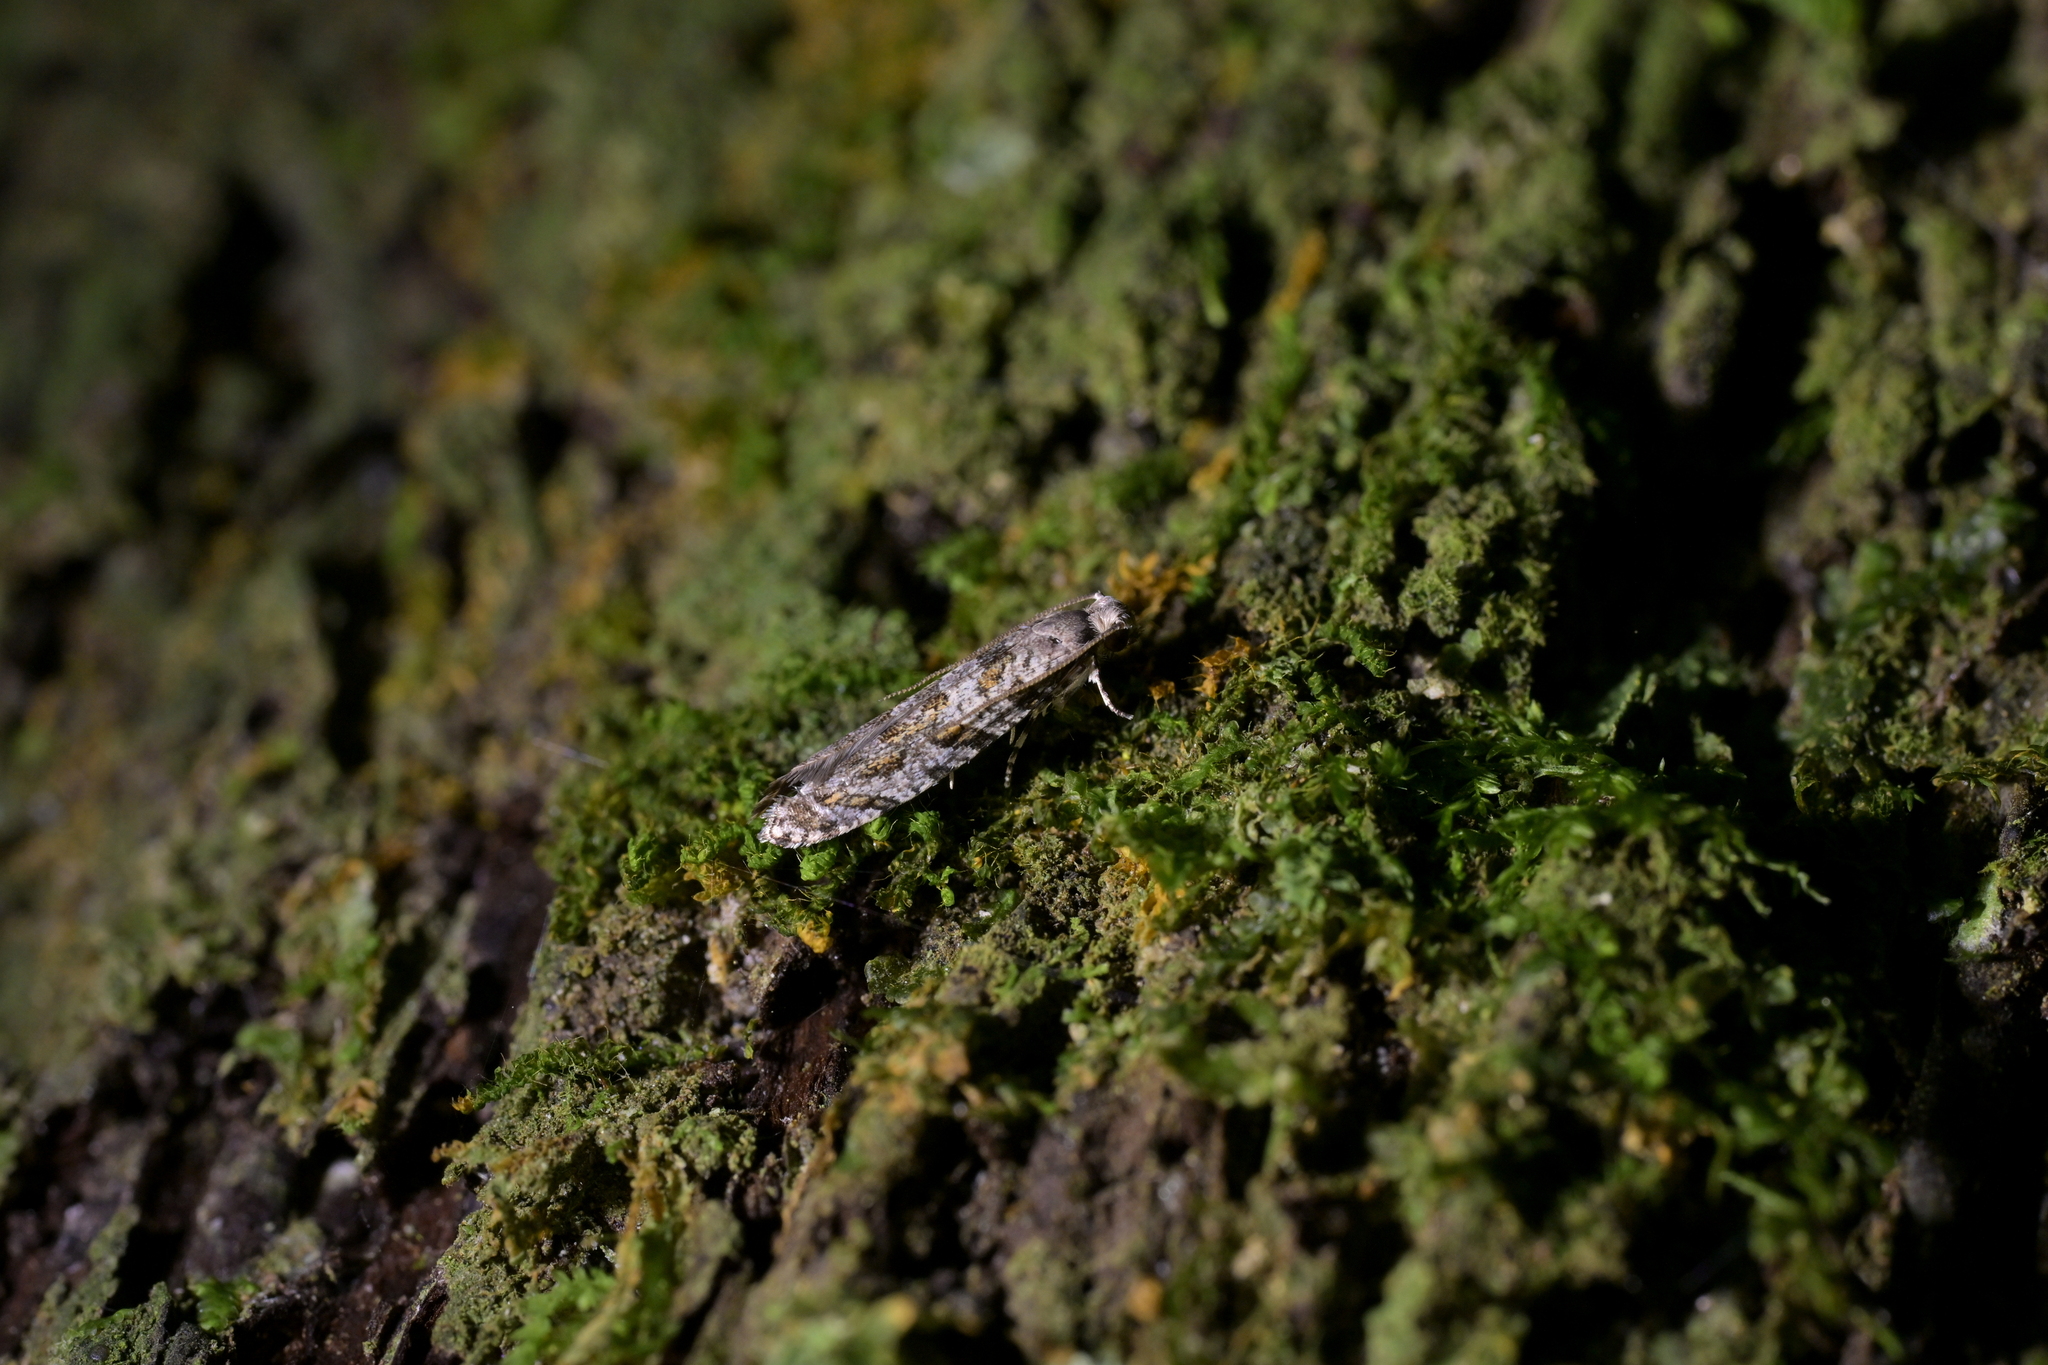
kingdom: Animalia
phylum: Arthropoda
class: Insecta
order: Lepidoptera
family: Tineidae
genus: Archyala
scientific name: Archyala paraglypta
